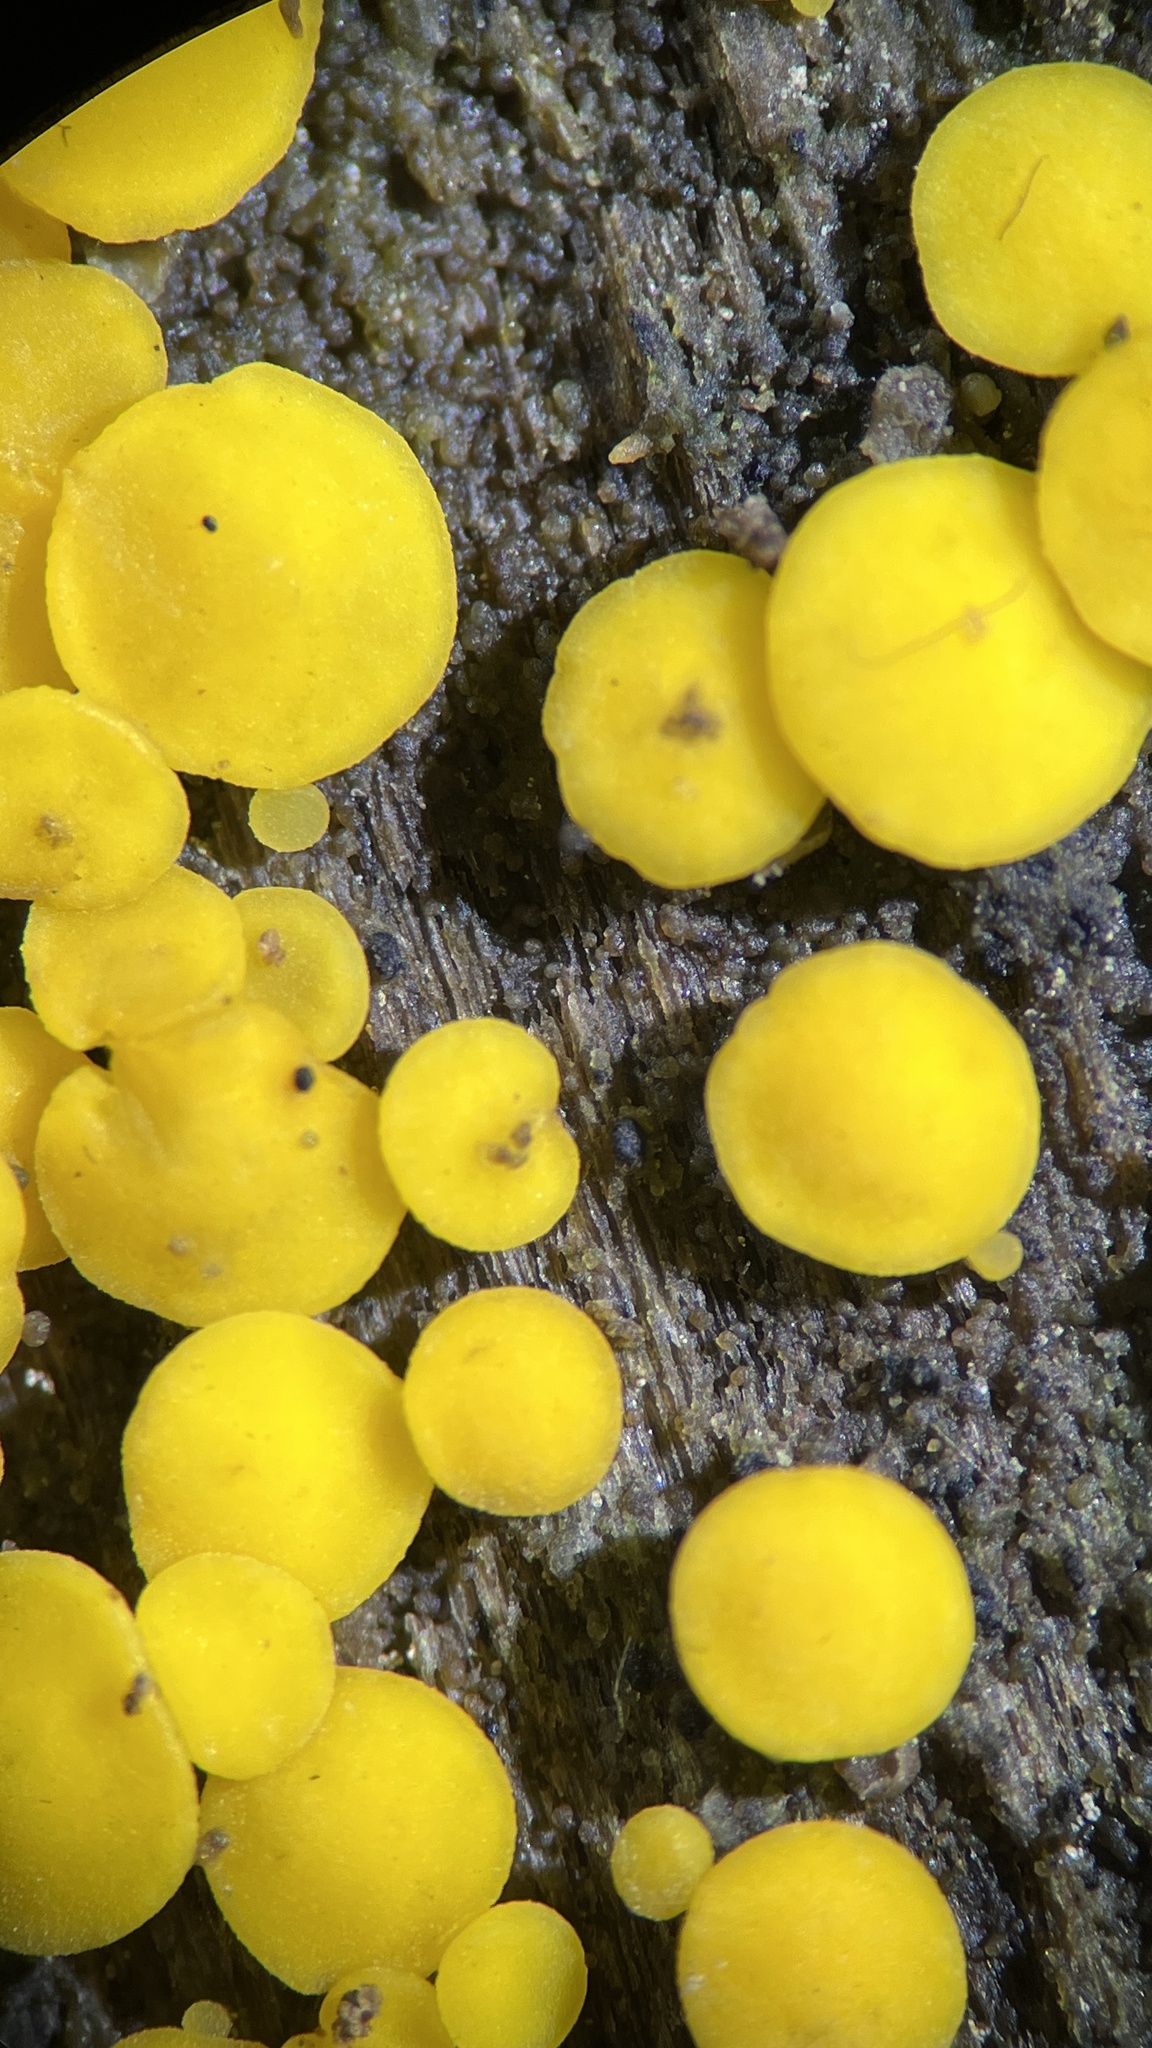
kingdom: Fungi
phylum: Ascomycota
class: Leotiomycetes
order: Helotiales
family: Pezizellaceae
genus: Calycina
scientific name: Calycina citrina
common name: Yellow fairy cups
